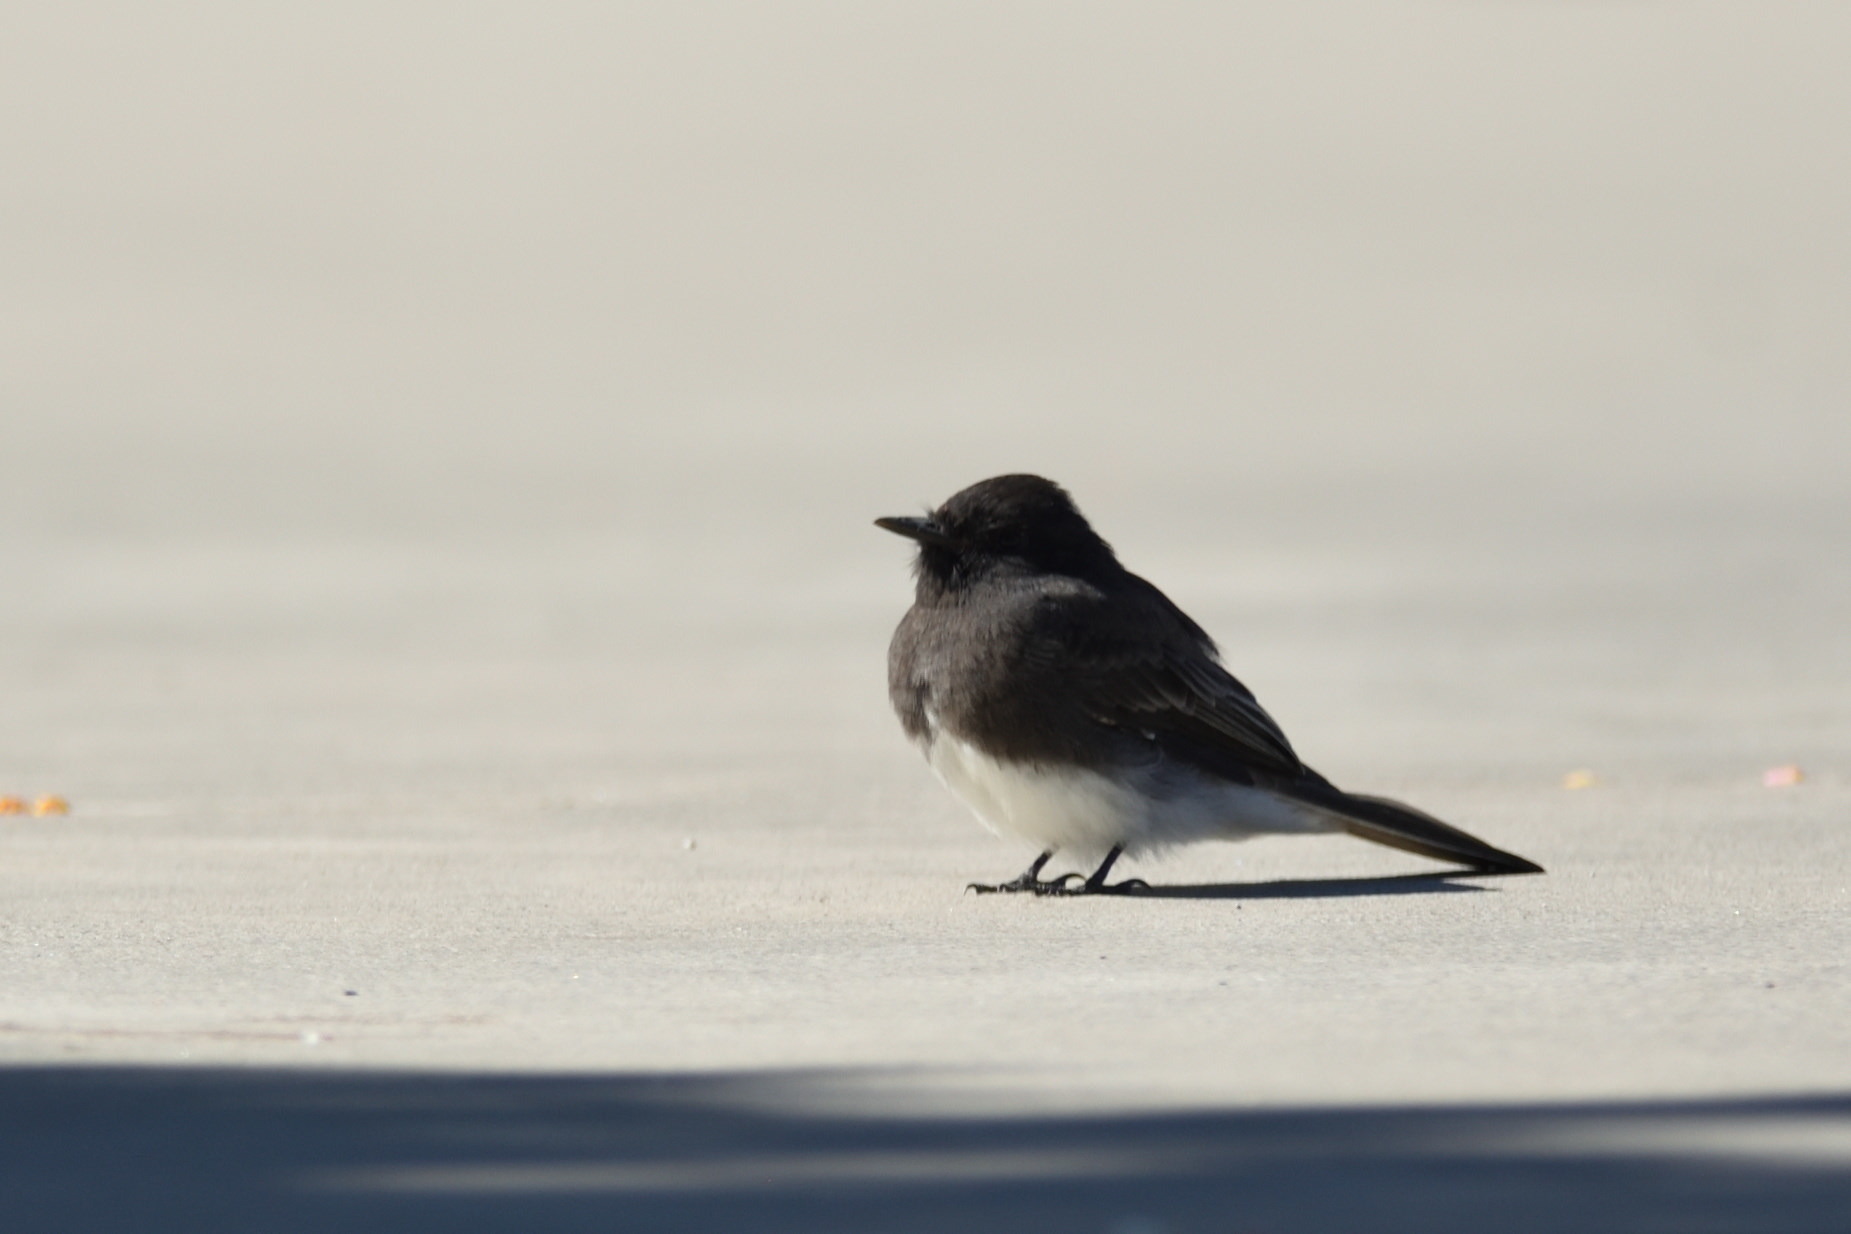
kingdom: Animalia
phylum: Chordata
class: Aves
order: Passeriformes
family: Tyrannidae
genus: Sayornis
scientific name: Sayornis nigricans
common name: Black phoebe
